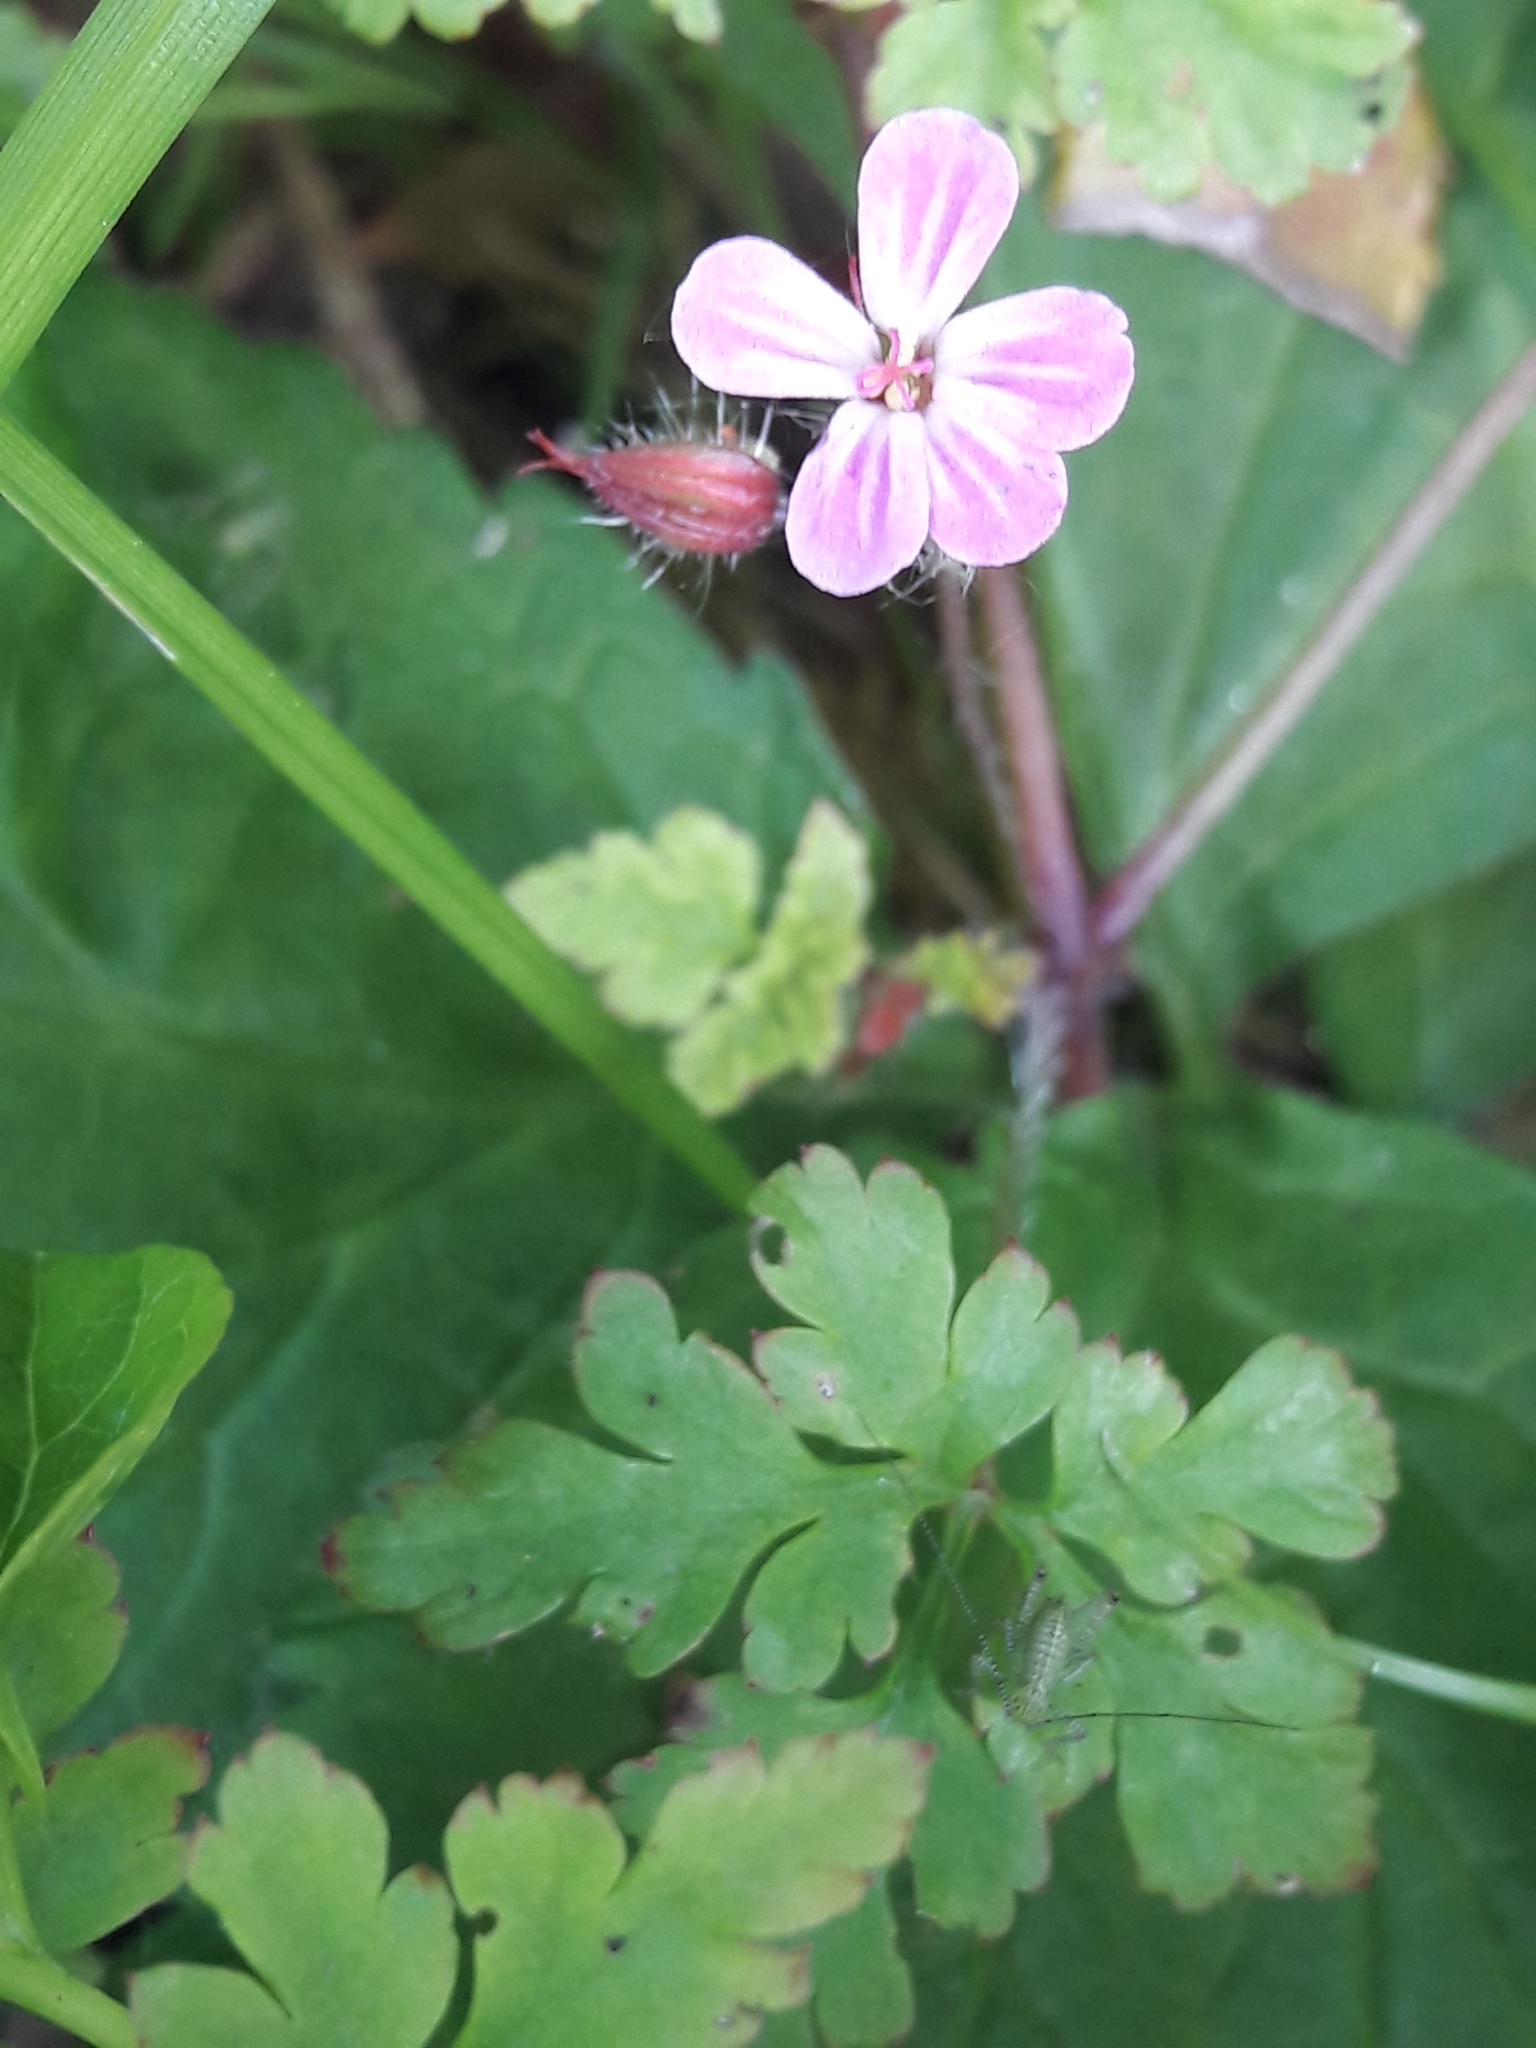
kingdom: Plantae
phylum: Tracheophyta
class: Magnoliopsida
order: Geraniales
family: Geraniaceae
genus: Geranium
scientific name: Geranium robertianum
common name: Herb-robert
